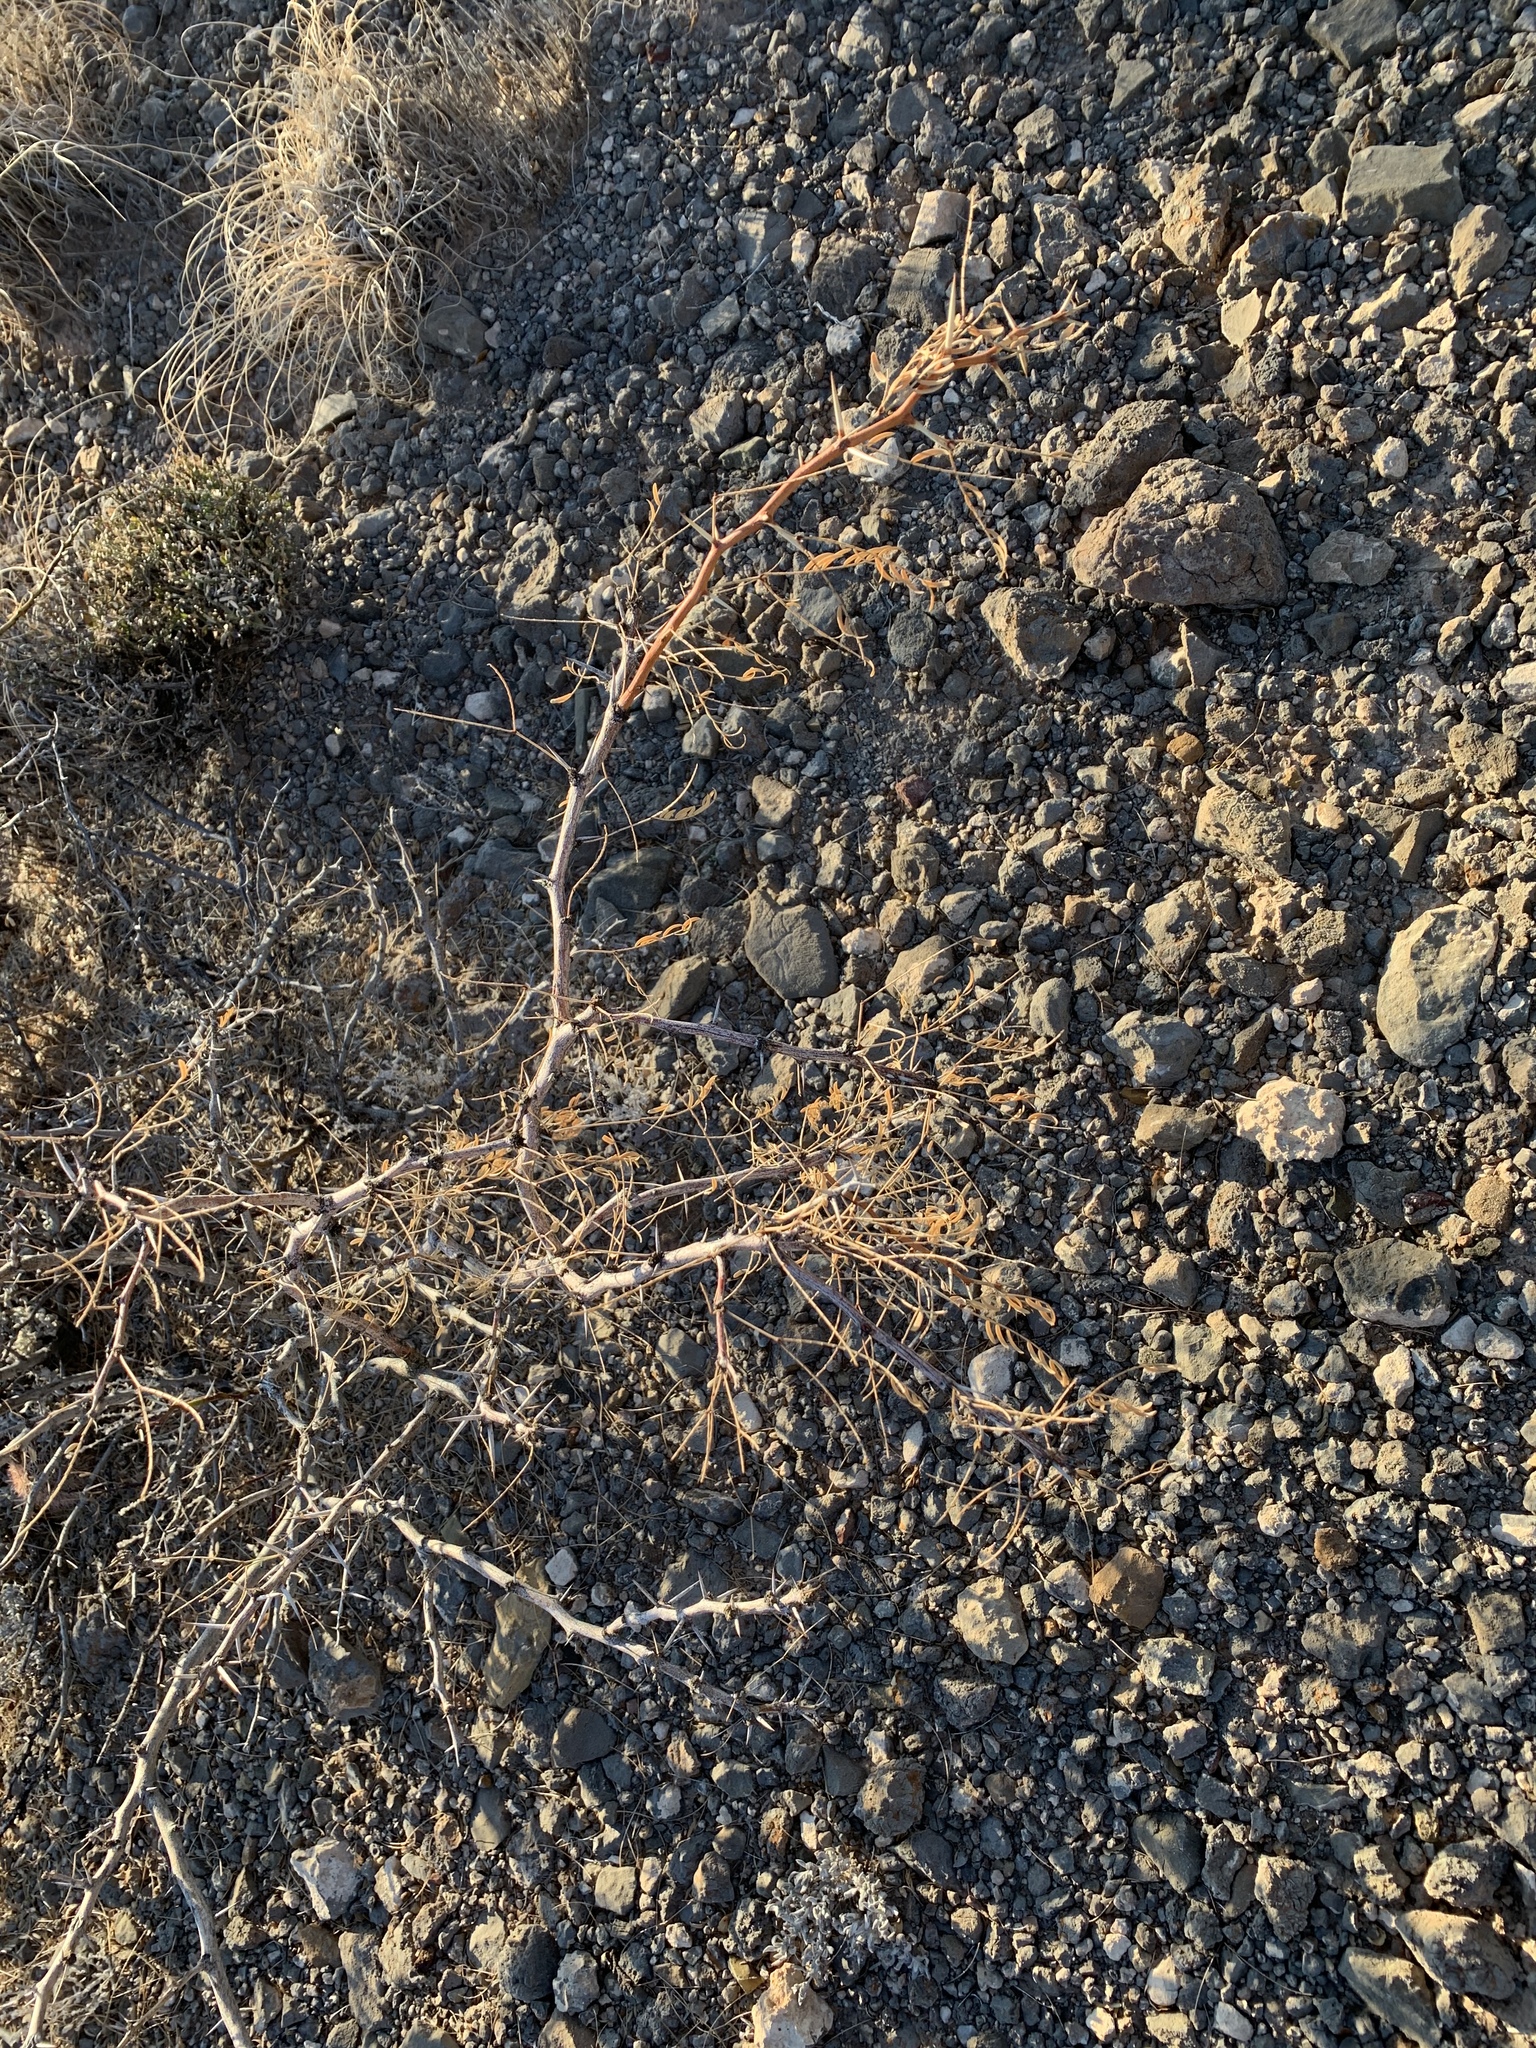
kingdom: Plantae
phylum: Tracheophyta
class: Magnoliopsida
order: Fabales
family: Fabaceae
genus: Prosopis
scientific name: Prosopis glandulosa
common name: Honey mesquite
